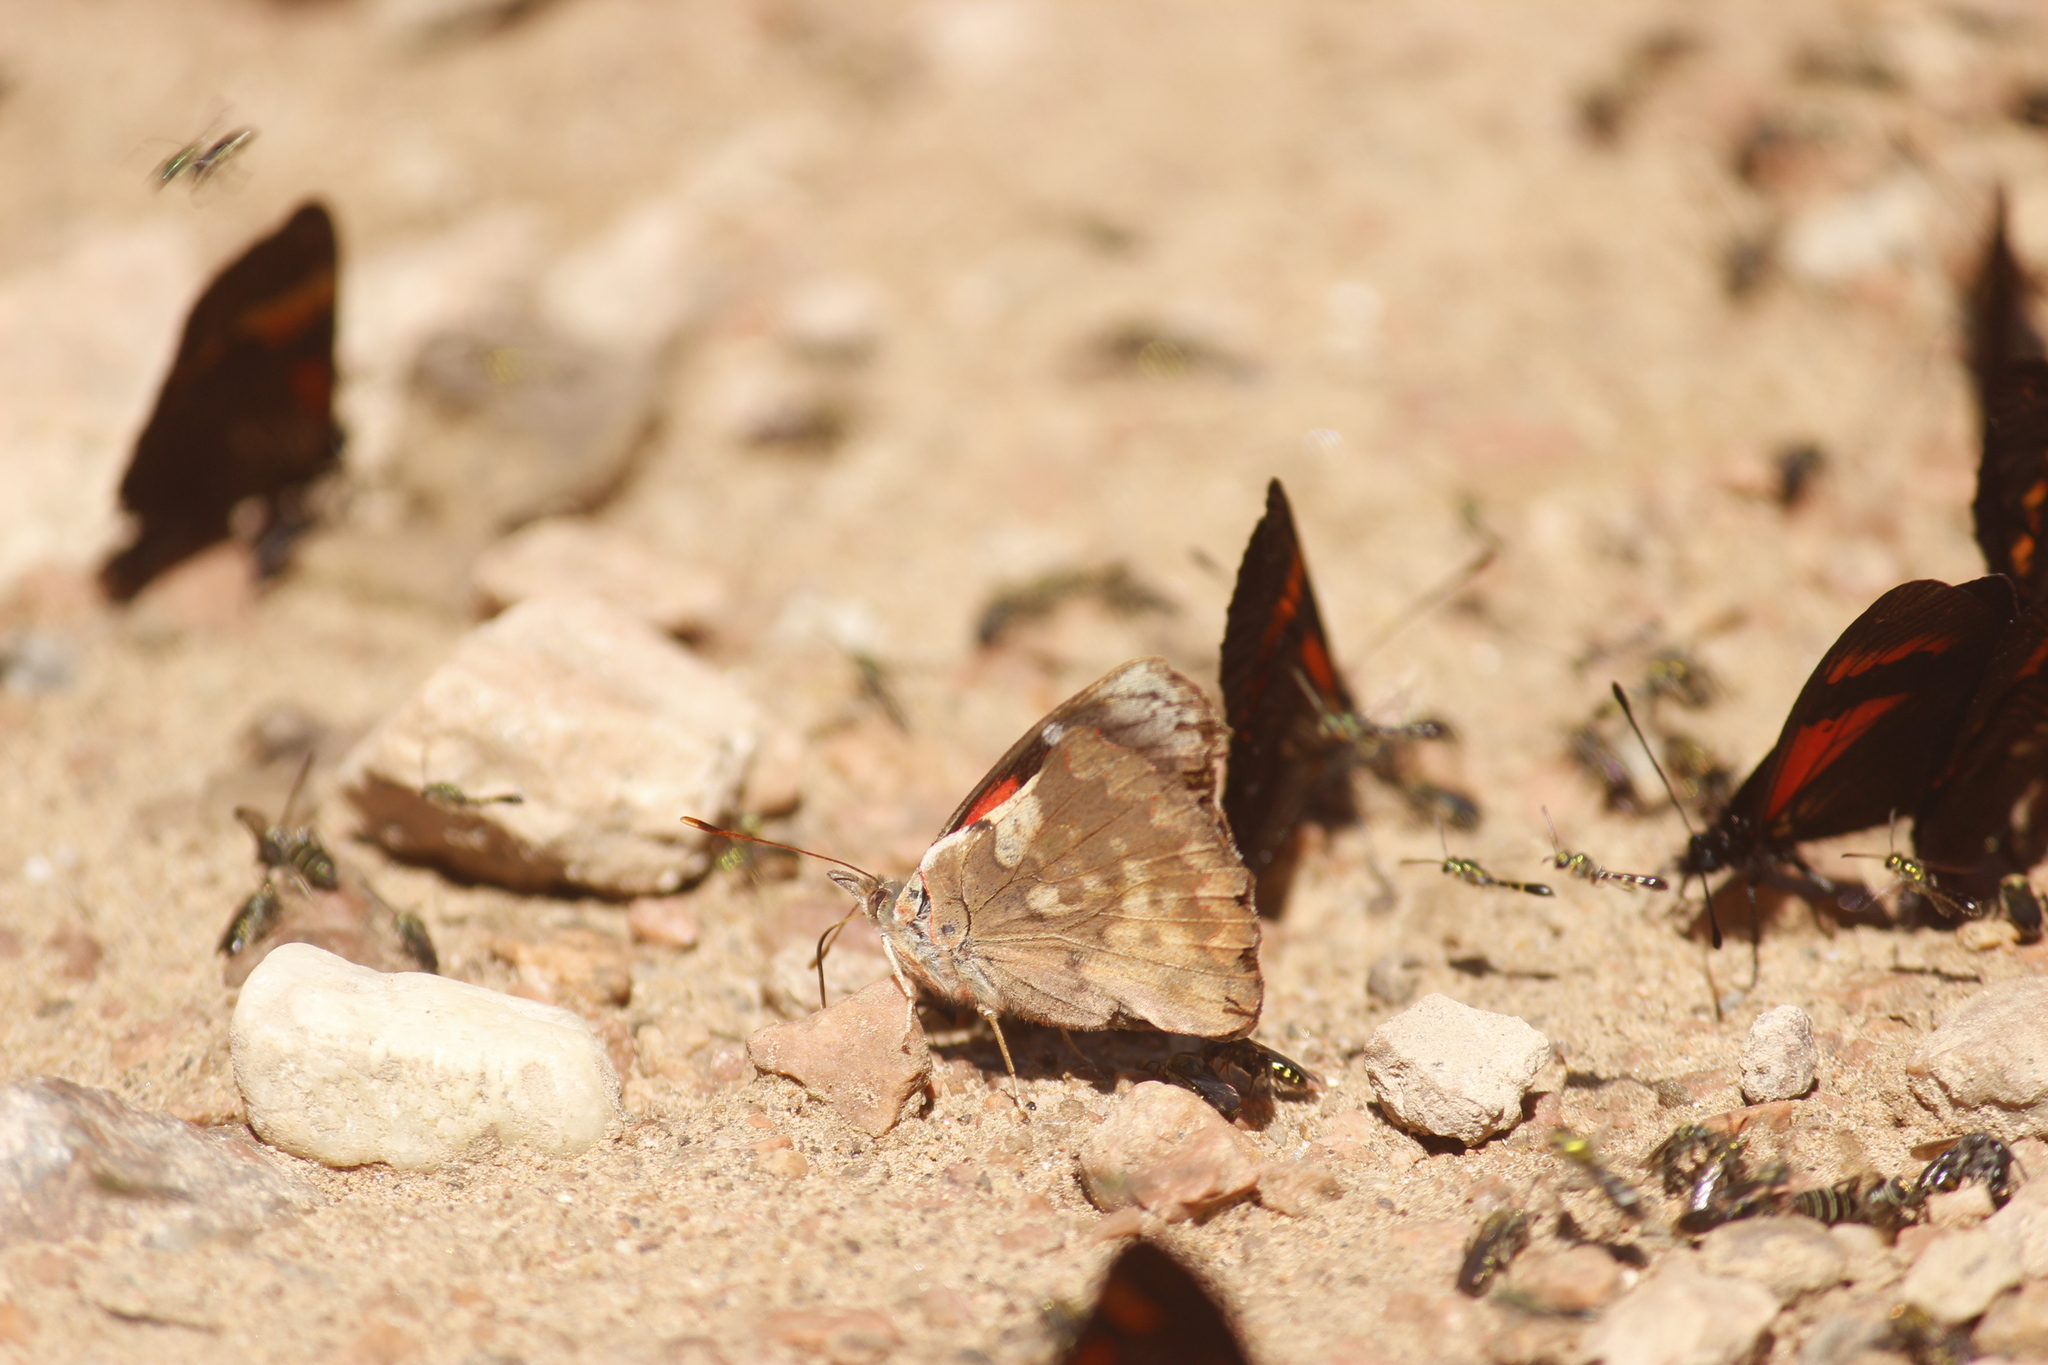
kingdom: Animalia
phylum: Arthropoda
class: Insecta
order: Lepidoptera
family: Nymphalidae
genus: Perisama
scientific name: Perisama Orophila cecidas
